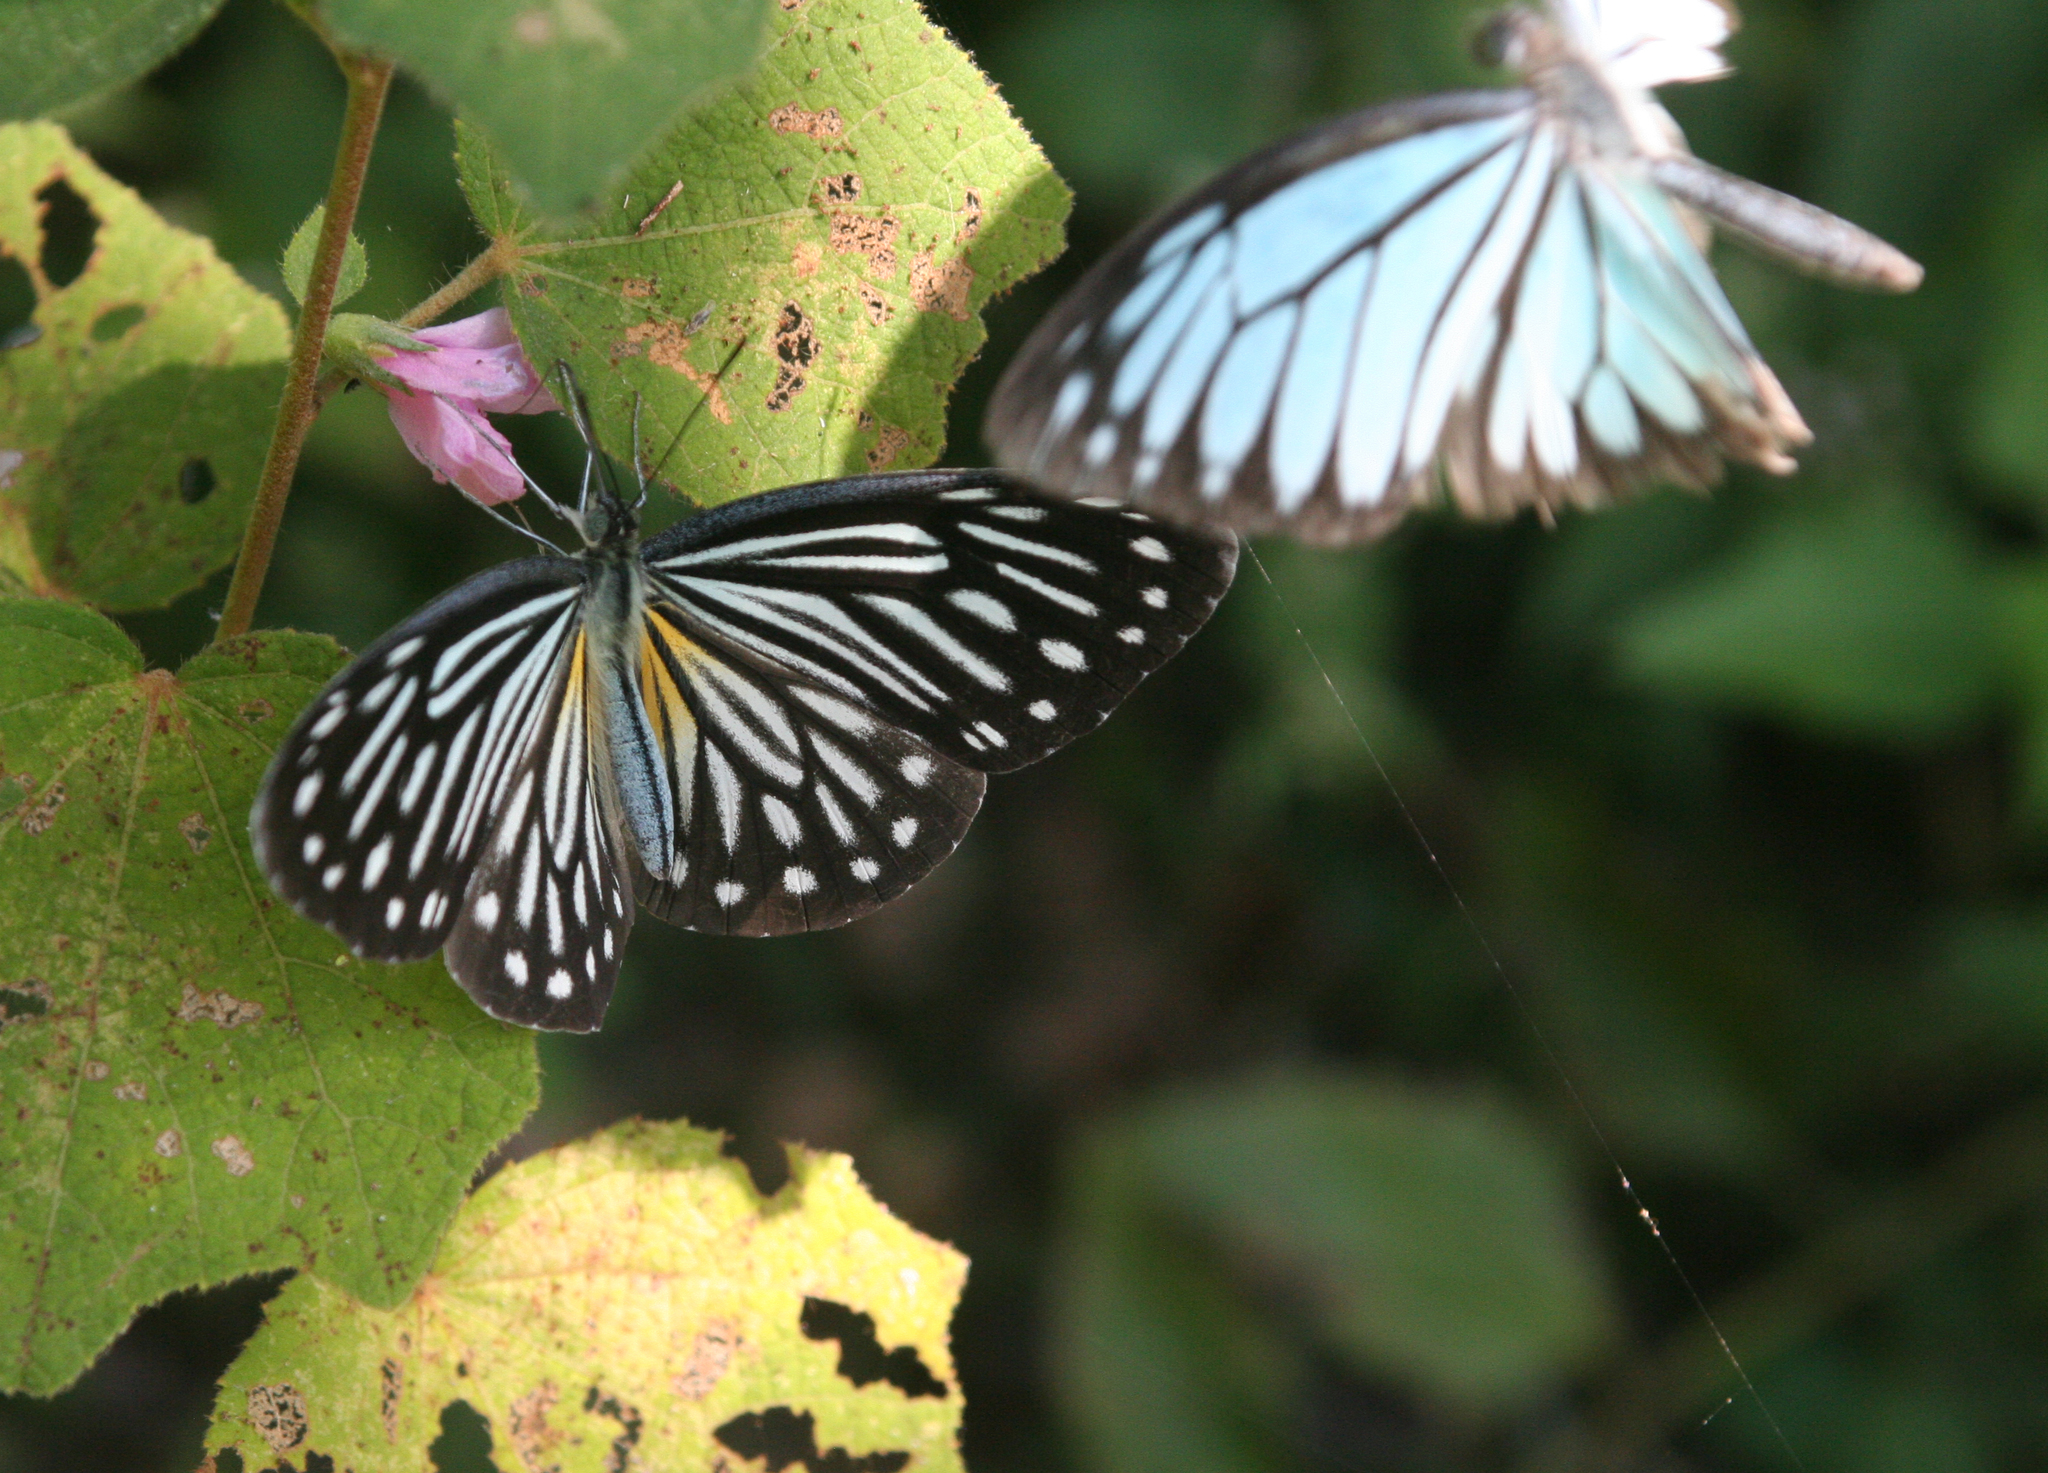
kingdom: Animalia
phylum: Arthropoda
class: Insecta
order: Lepidoptera
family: Pieridae
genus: Pareronia
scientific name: Pareronia hippia
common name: Indian wanderer
